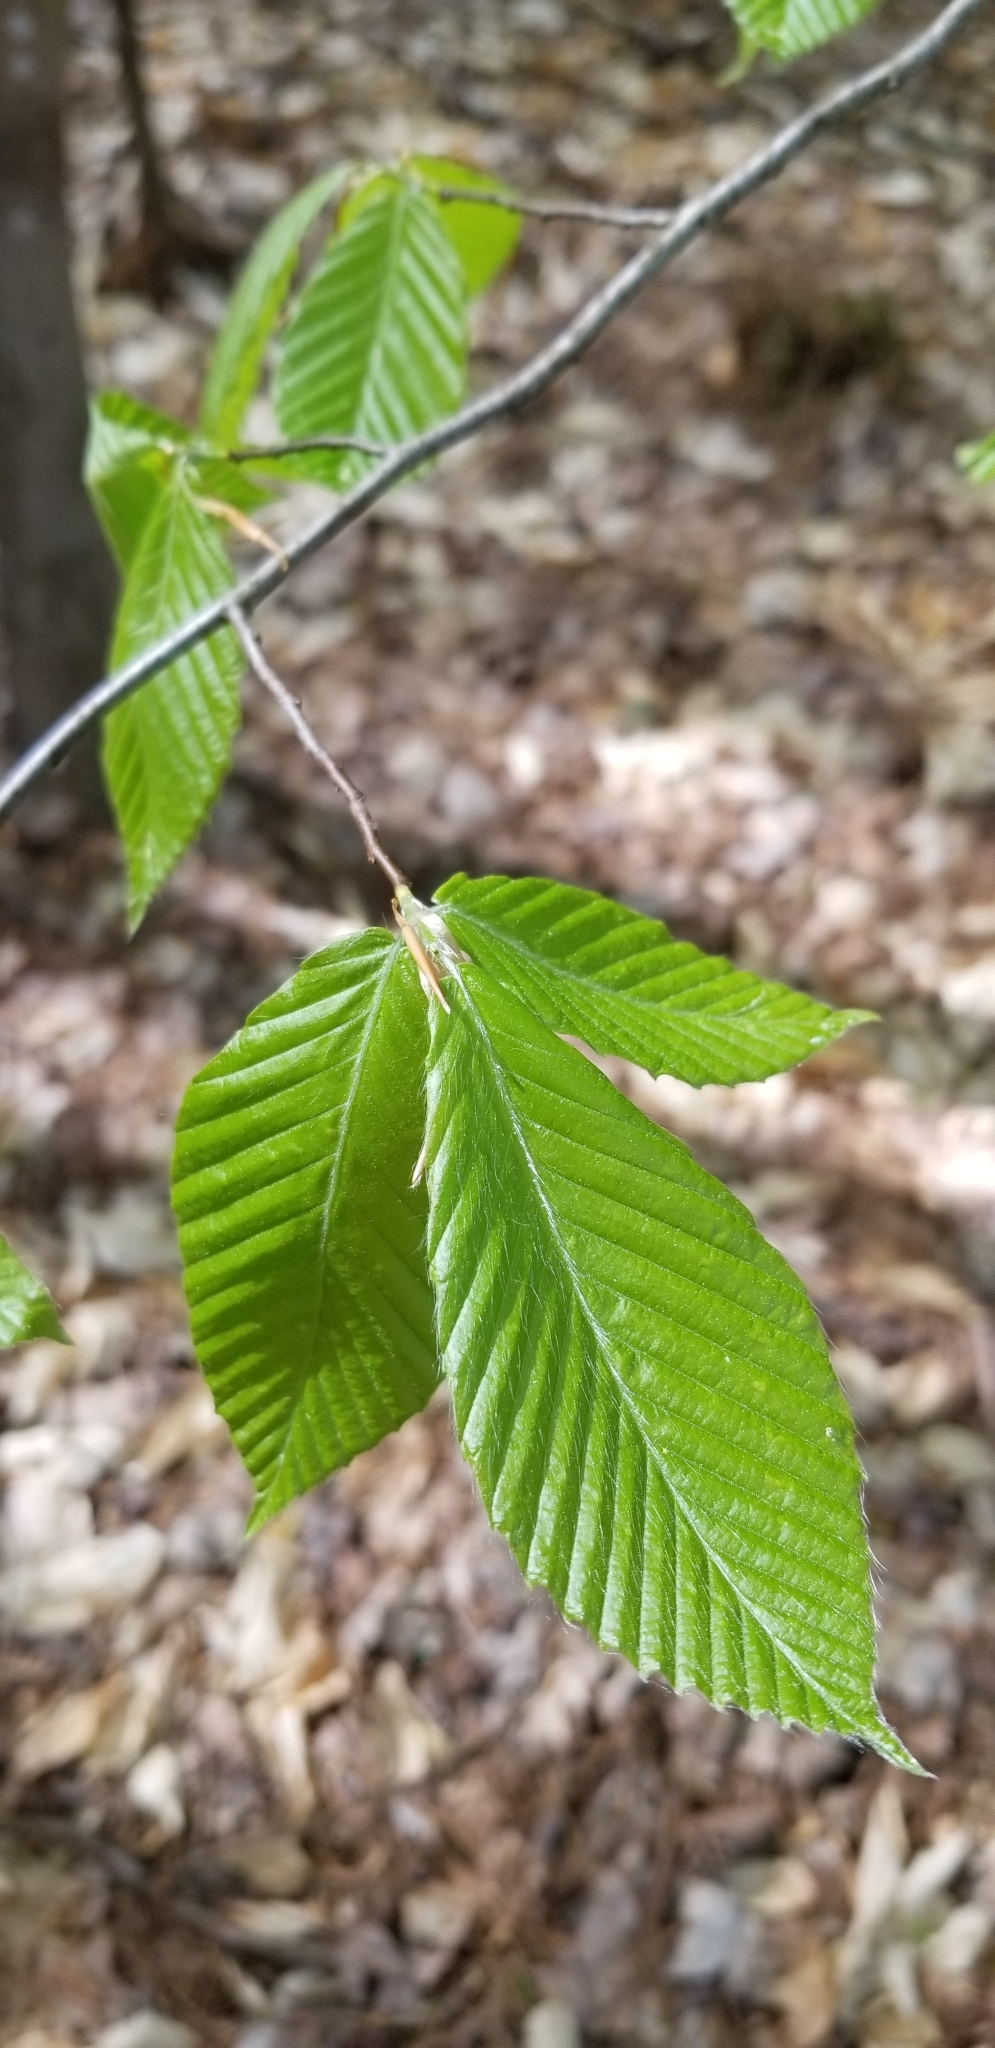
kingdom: Plantae
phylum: Tracheophyta
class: Magnoliopsida
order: Fagales
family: Fagaceae
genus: Fagus
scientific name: Fagus grandifolia
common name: American beech
